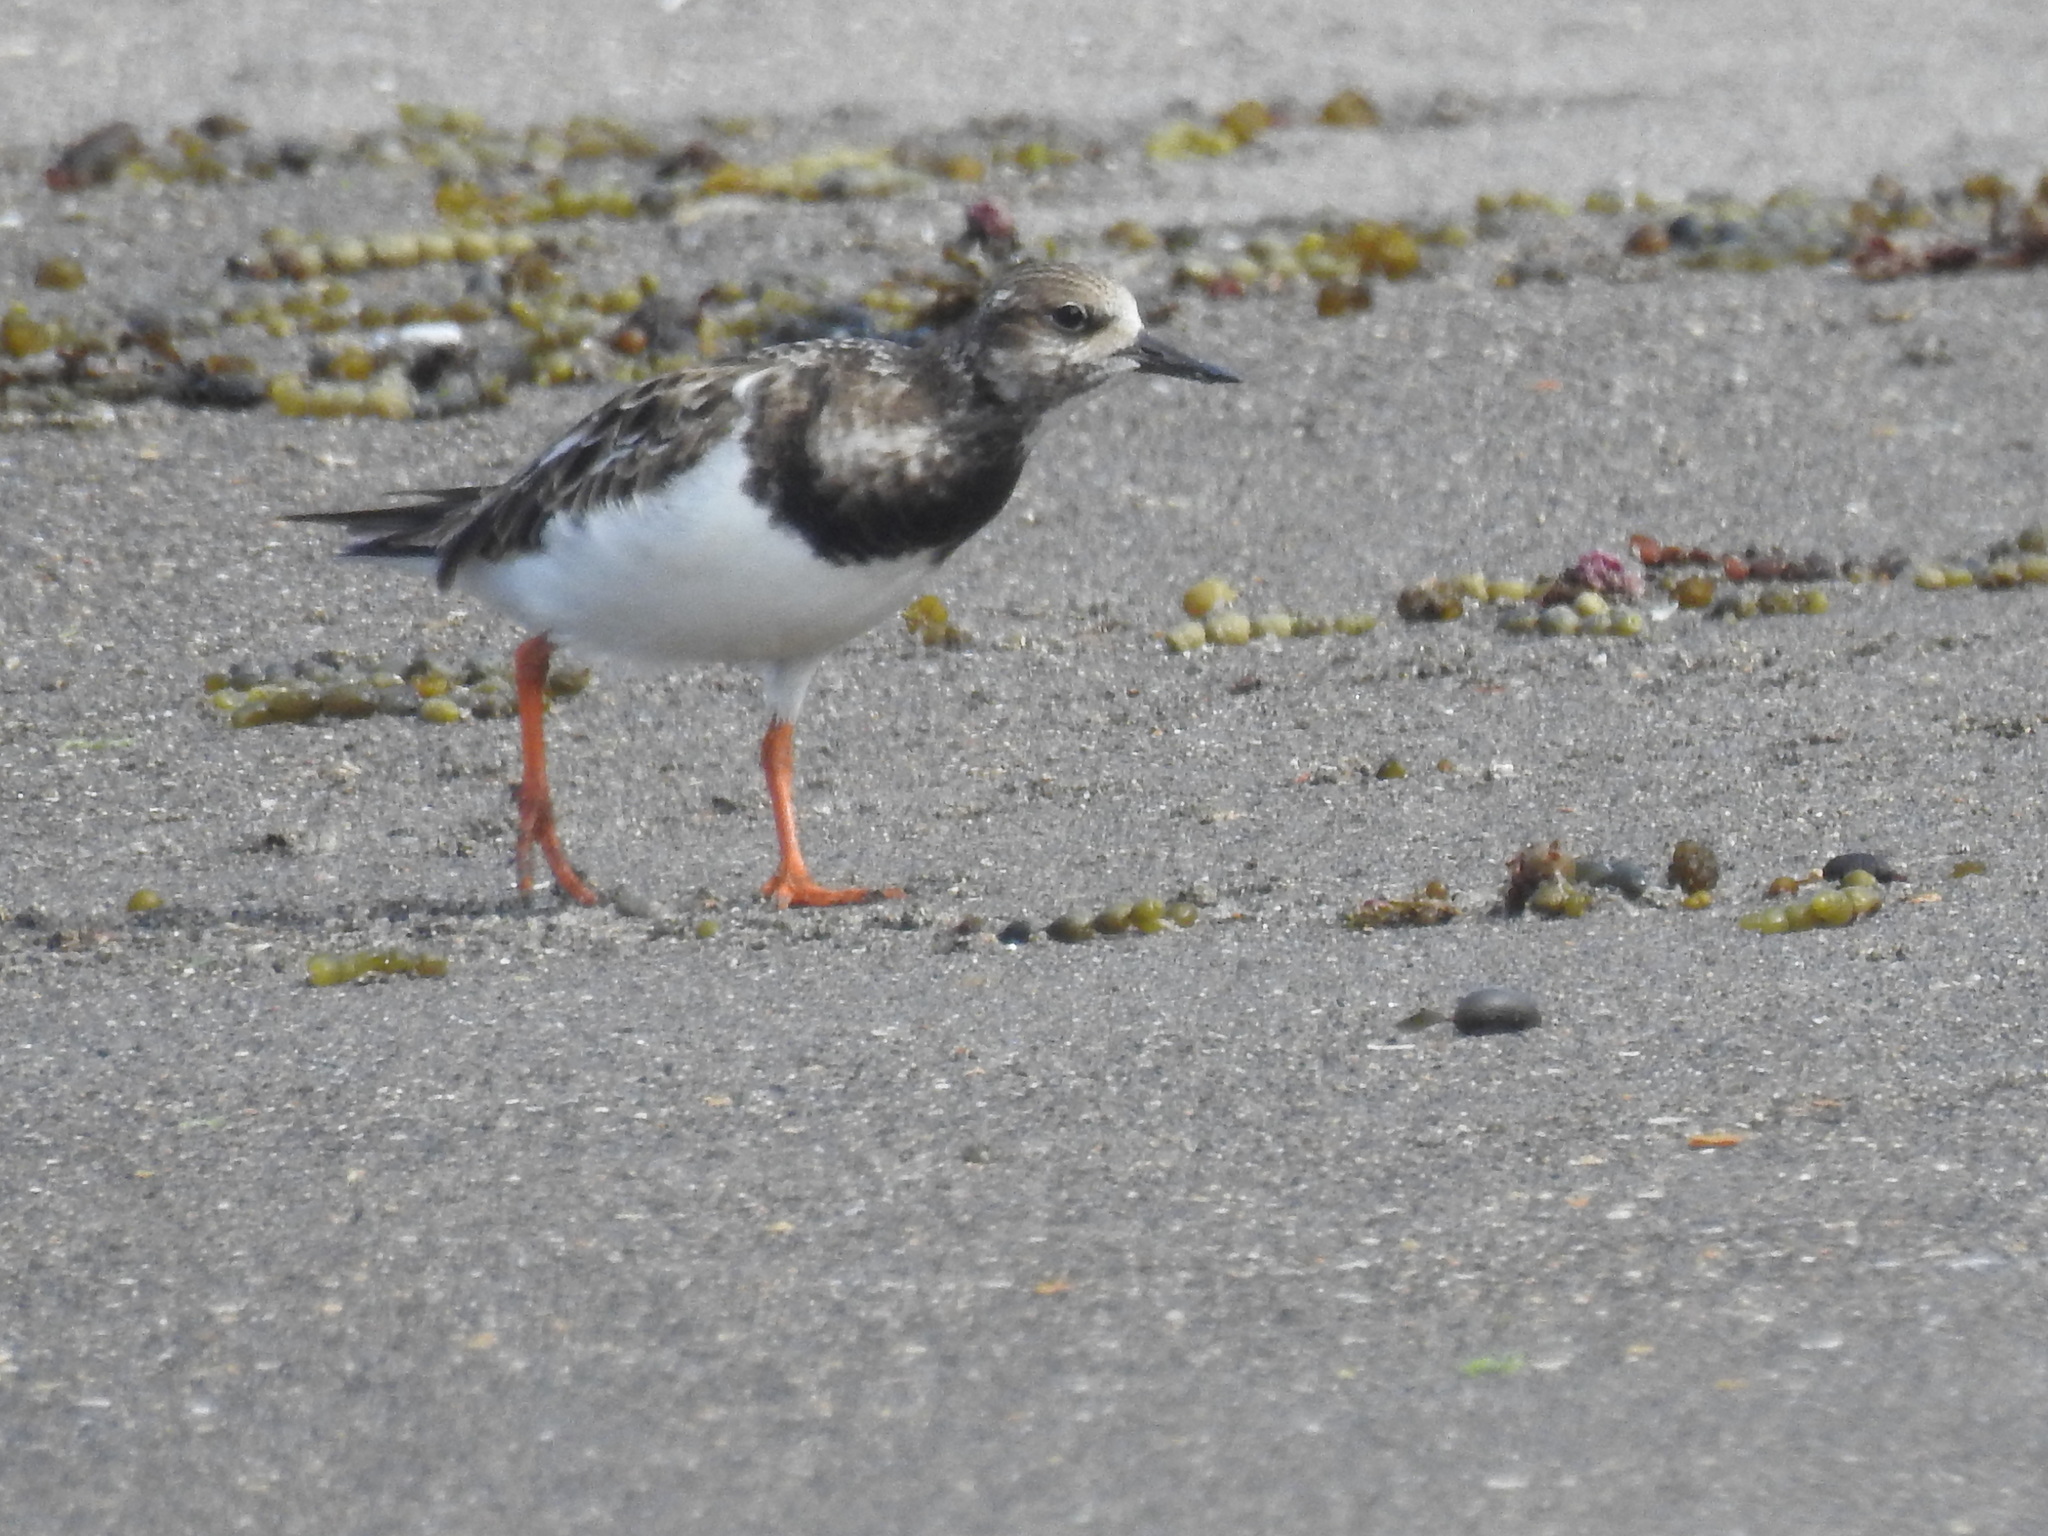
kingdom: Animalia
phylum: Chordata
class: Aves
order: Charadriiformes
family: Scolopacidae
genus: Arenaria
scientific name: Arenaria interpres
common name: Ruddy turnstone
